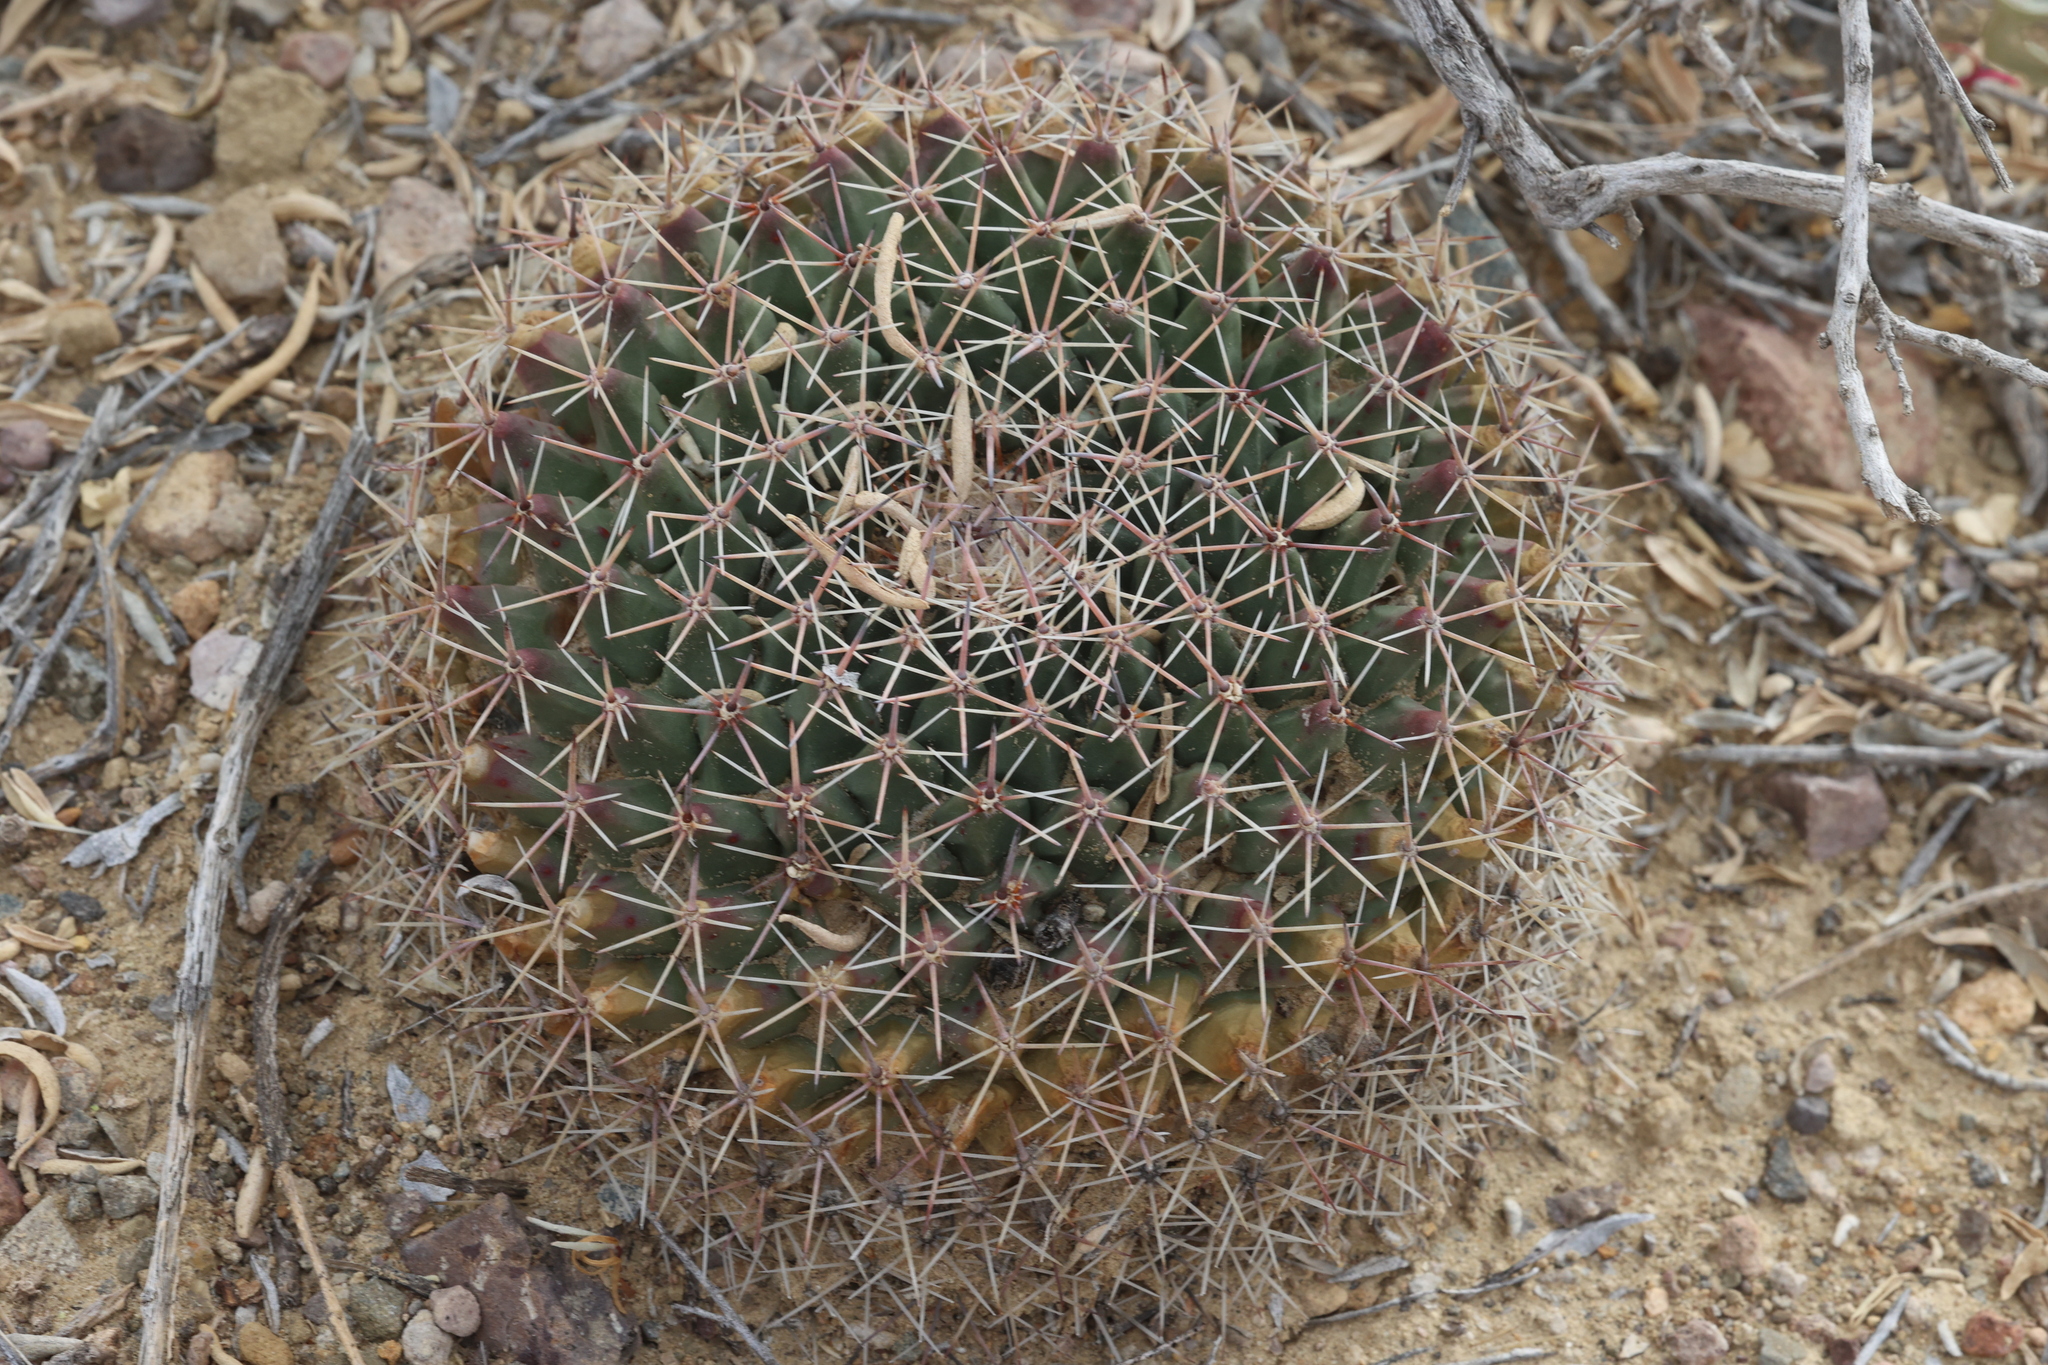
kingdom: Plantae
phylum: Tracheophyta
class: Magnoliopsida
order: Caryophyllales
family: Cactaceae
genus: Mammillaria
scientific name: Mammillaria heyderi
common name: Little nipple cactus
